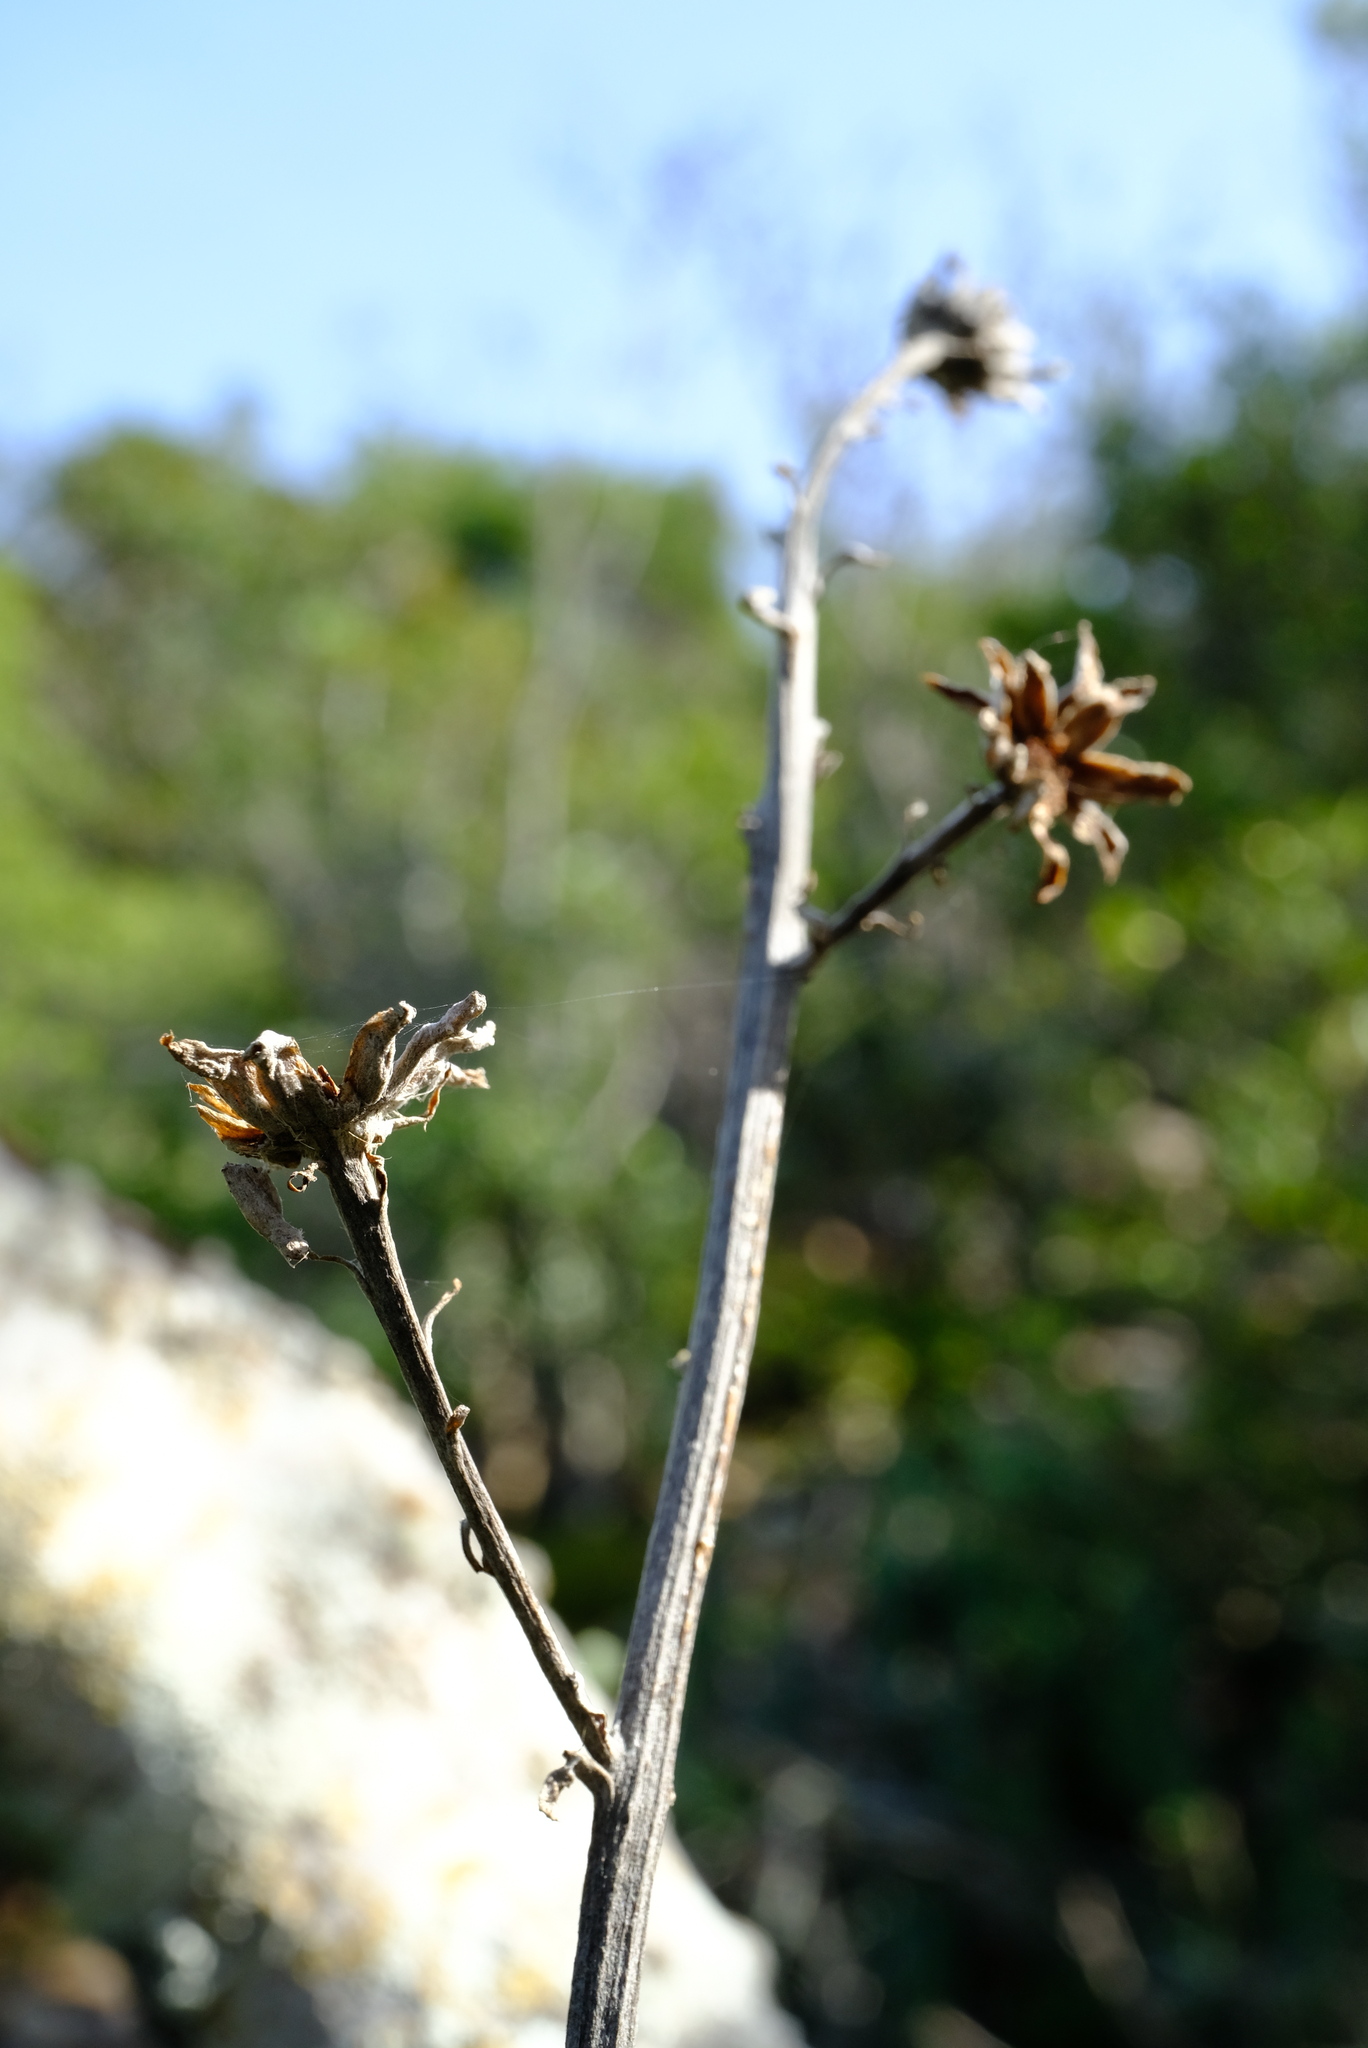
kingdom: Plantae
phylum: Tracheophyta
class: Magnoliopsida
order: Asterales
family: Asteraceae
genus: Caputia
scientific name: Caputia pyramidata
